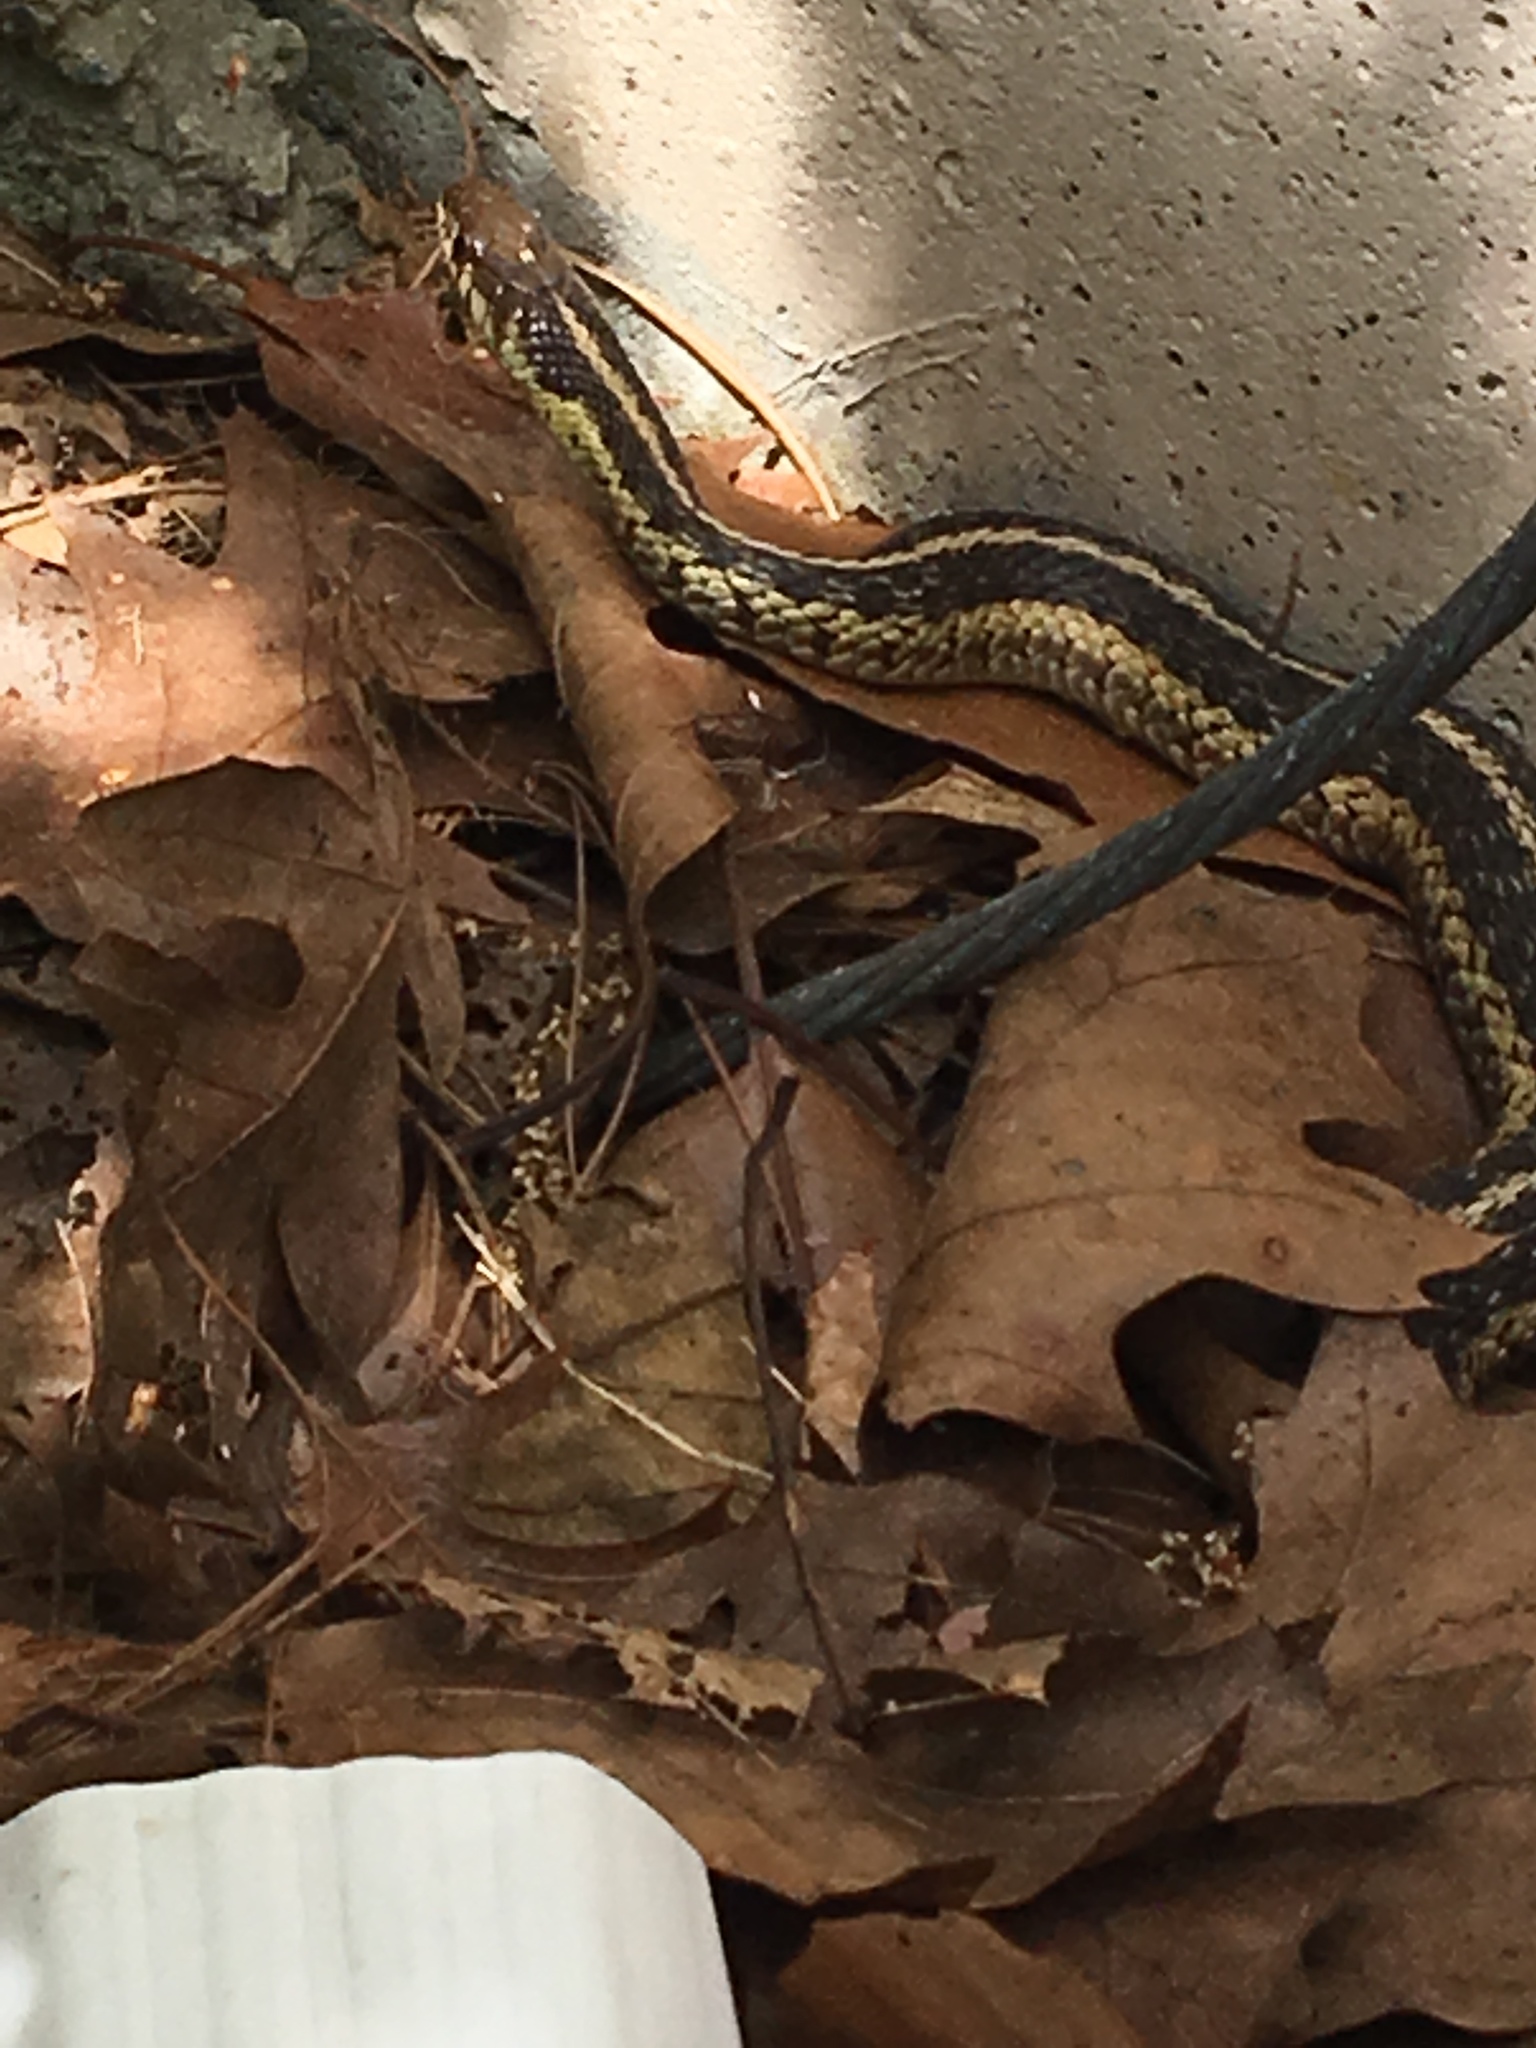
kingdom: Animalia
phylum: Chordata
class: Squamata
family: Colubridae
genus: Thamnophis
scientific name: Thamnophis sirtalis
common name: Common garter snake
